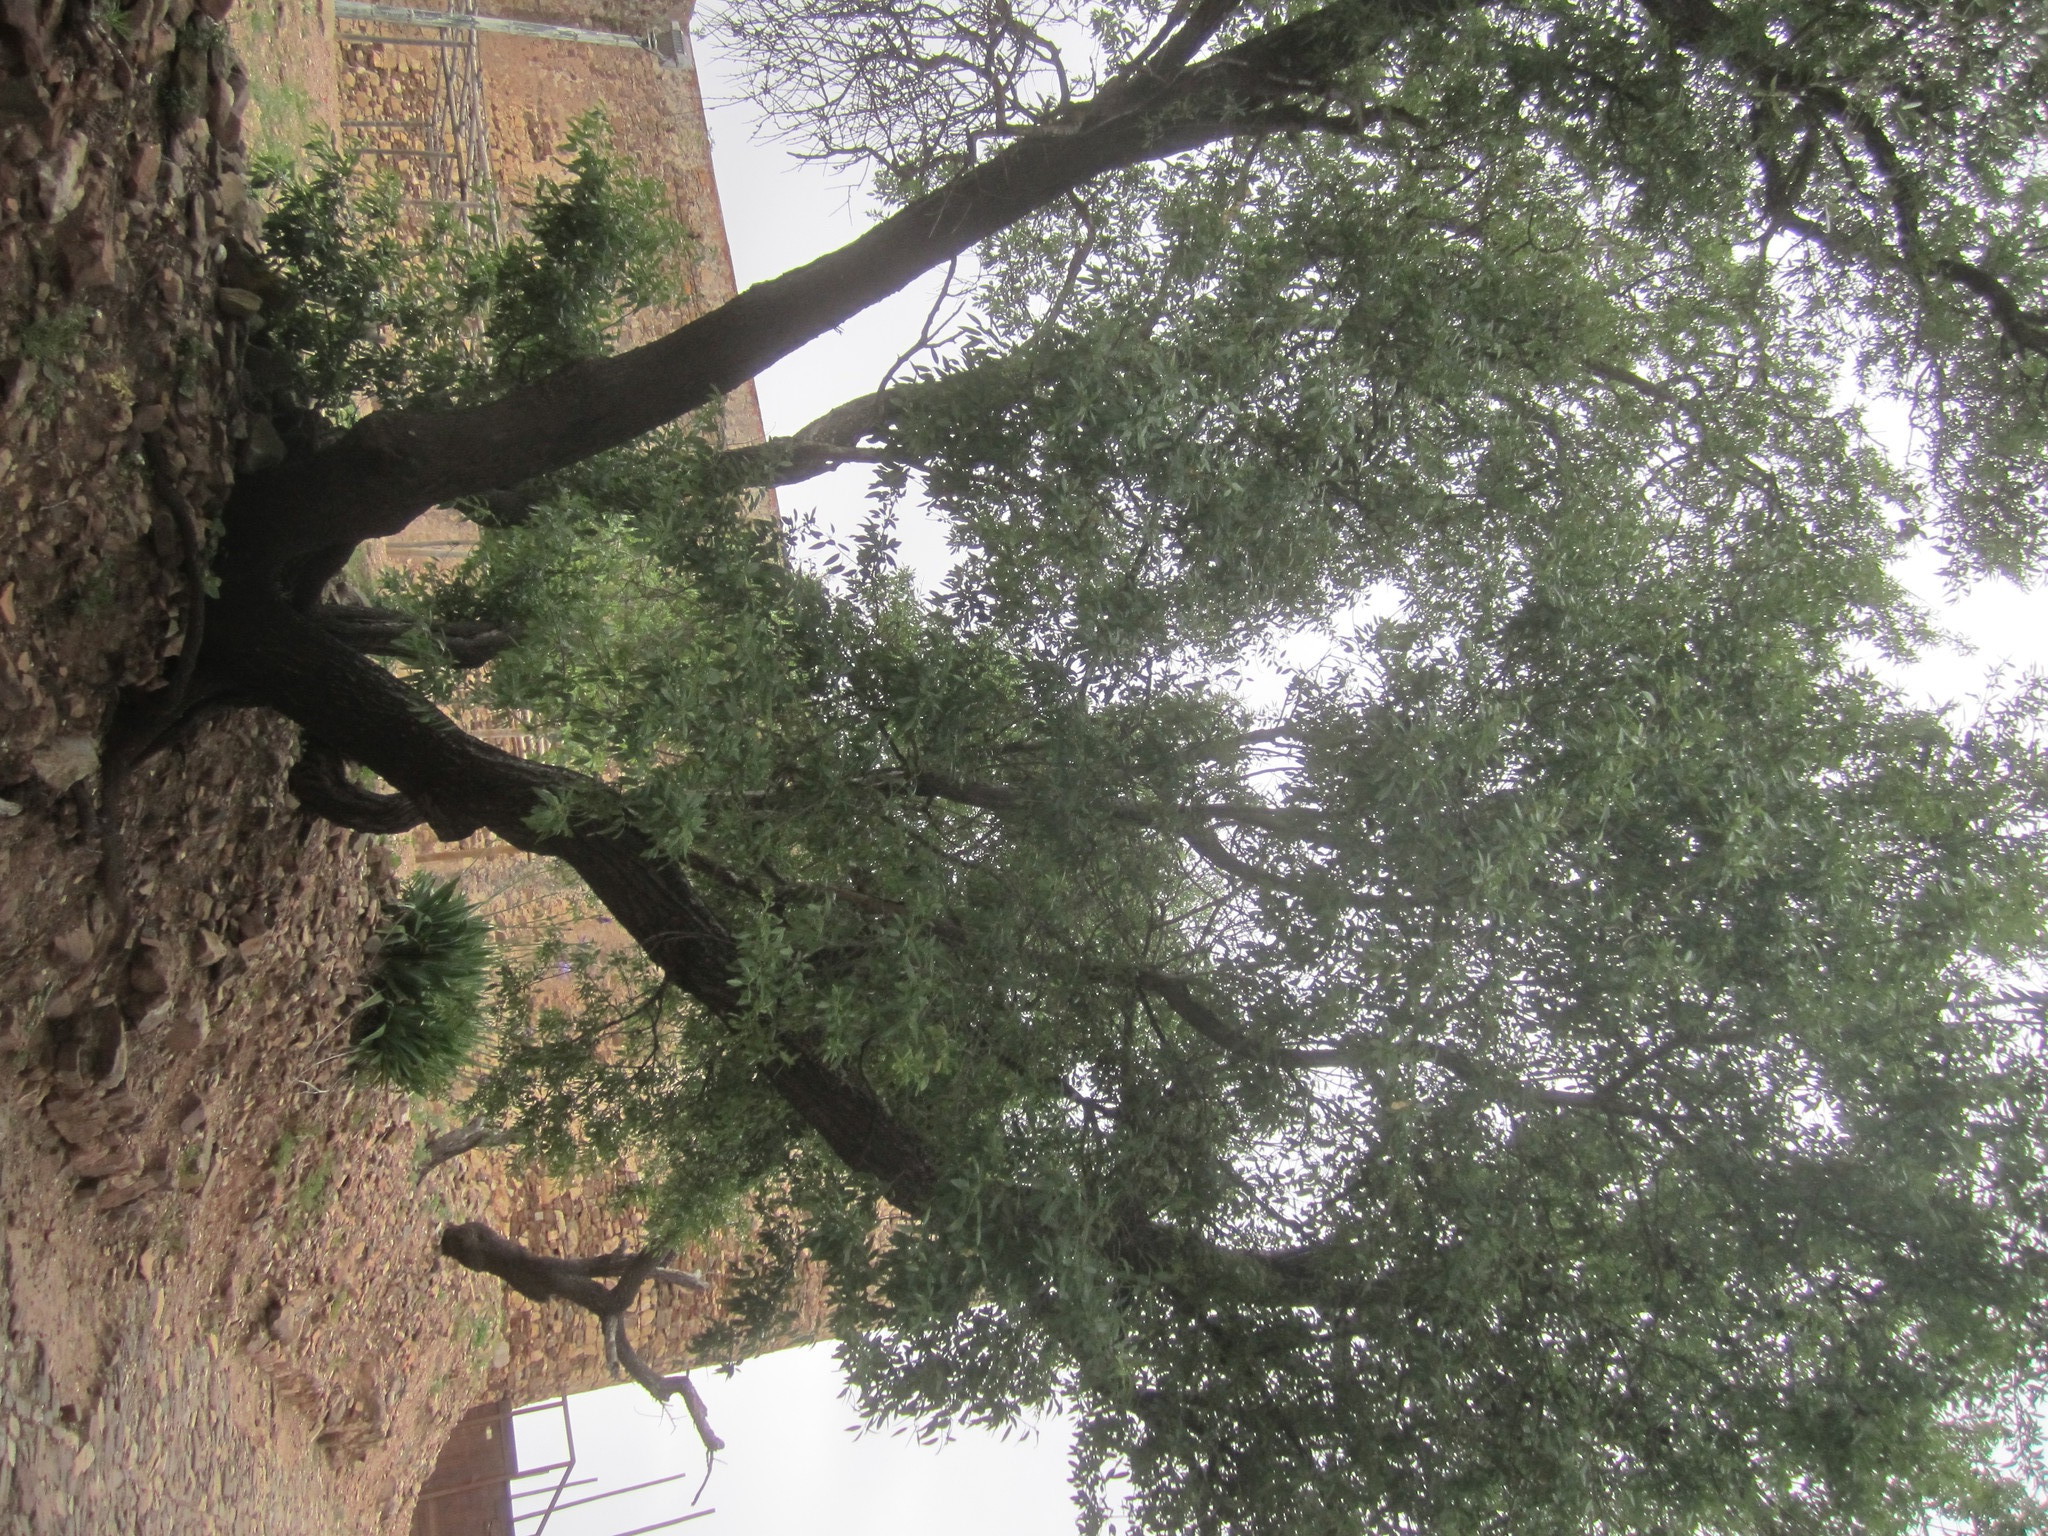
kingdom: Plantae
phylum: Tracheophyta
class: Magnoliopsida
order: Rosales
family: Rosaceae
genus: Prunus
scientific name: Prunus amygdalus
